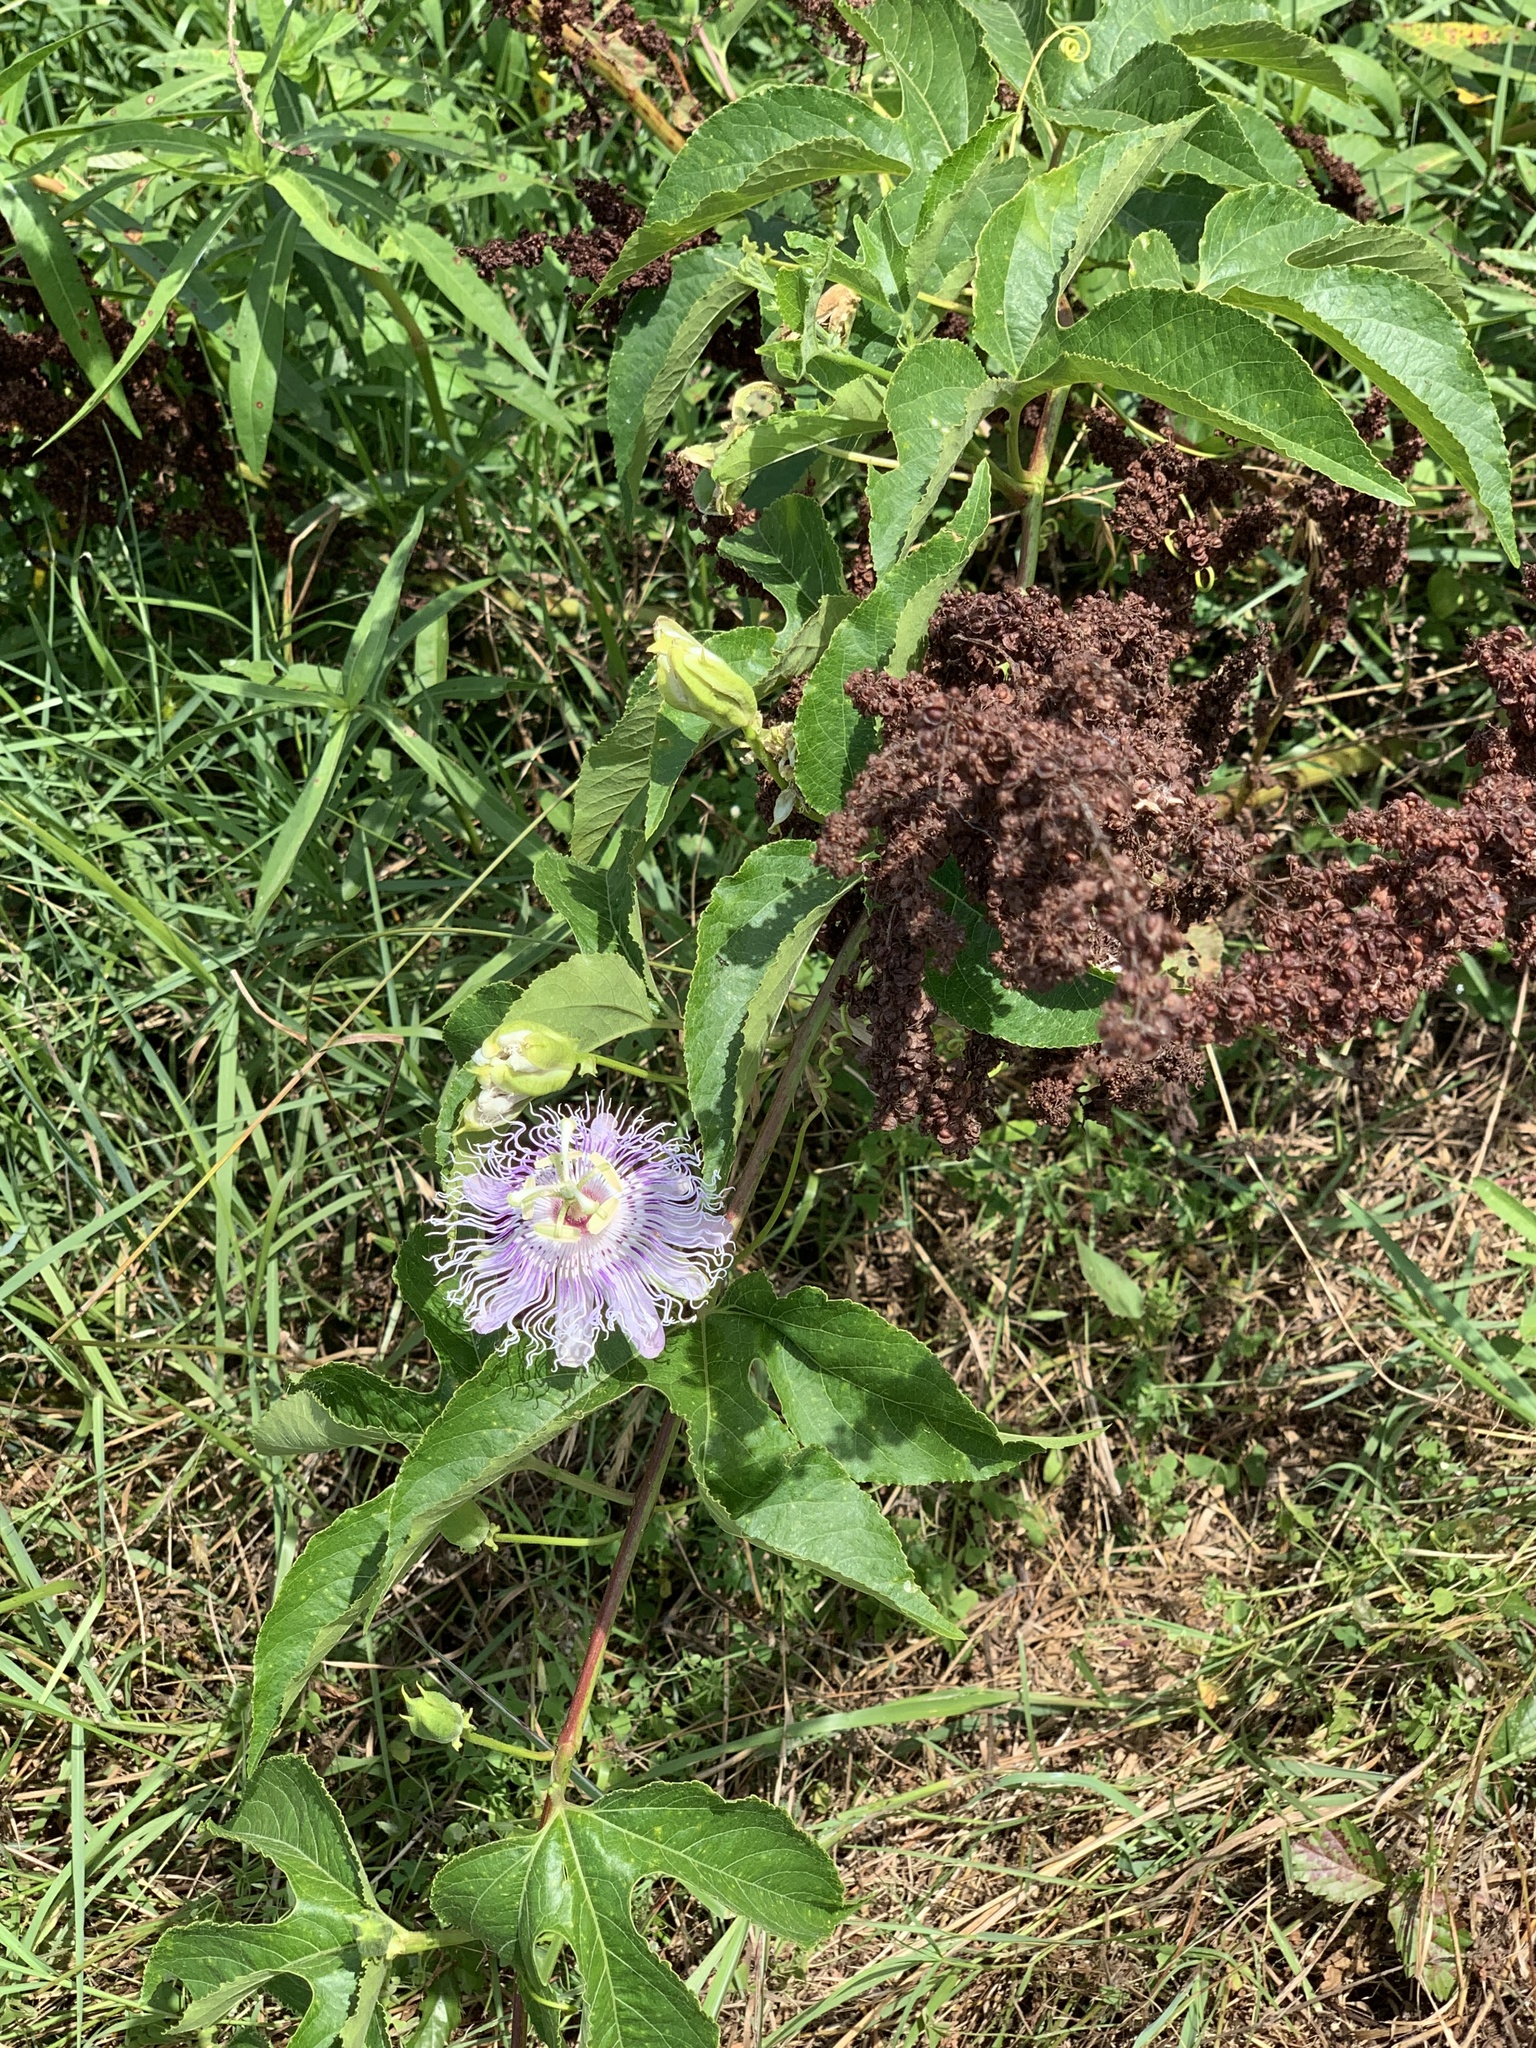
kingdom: Plantae
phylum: Tracheophyta
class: Magnoliopsida
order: Malpighiales
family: Passifloraceae
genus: Passiflora
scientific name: Passiflora incarnata
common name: Apricot-vine
